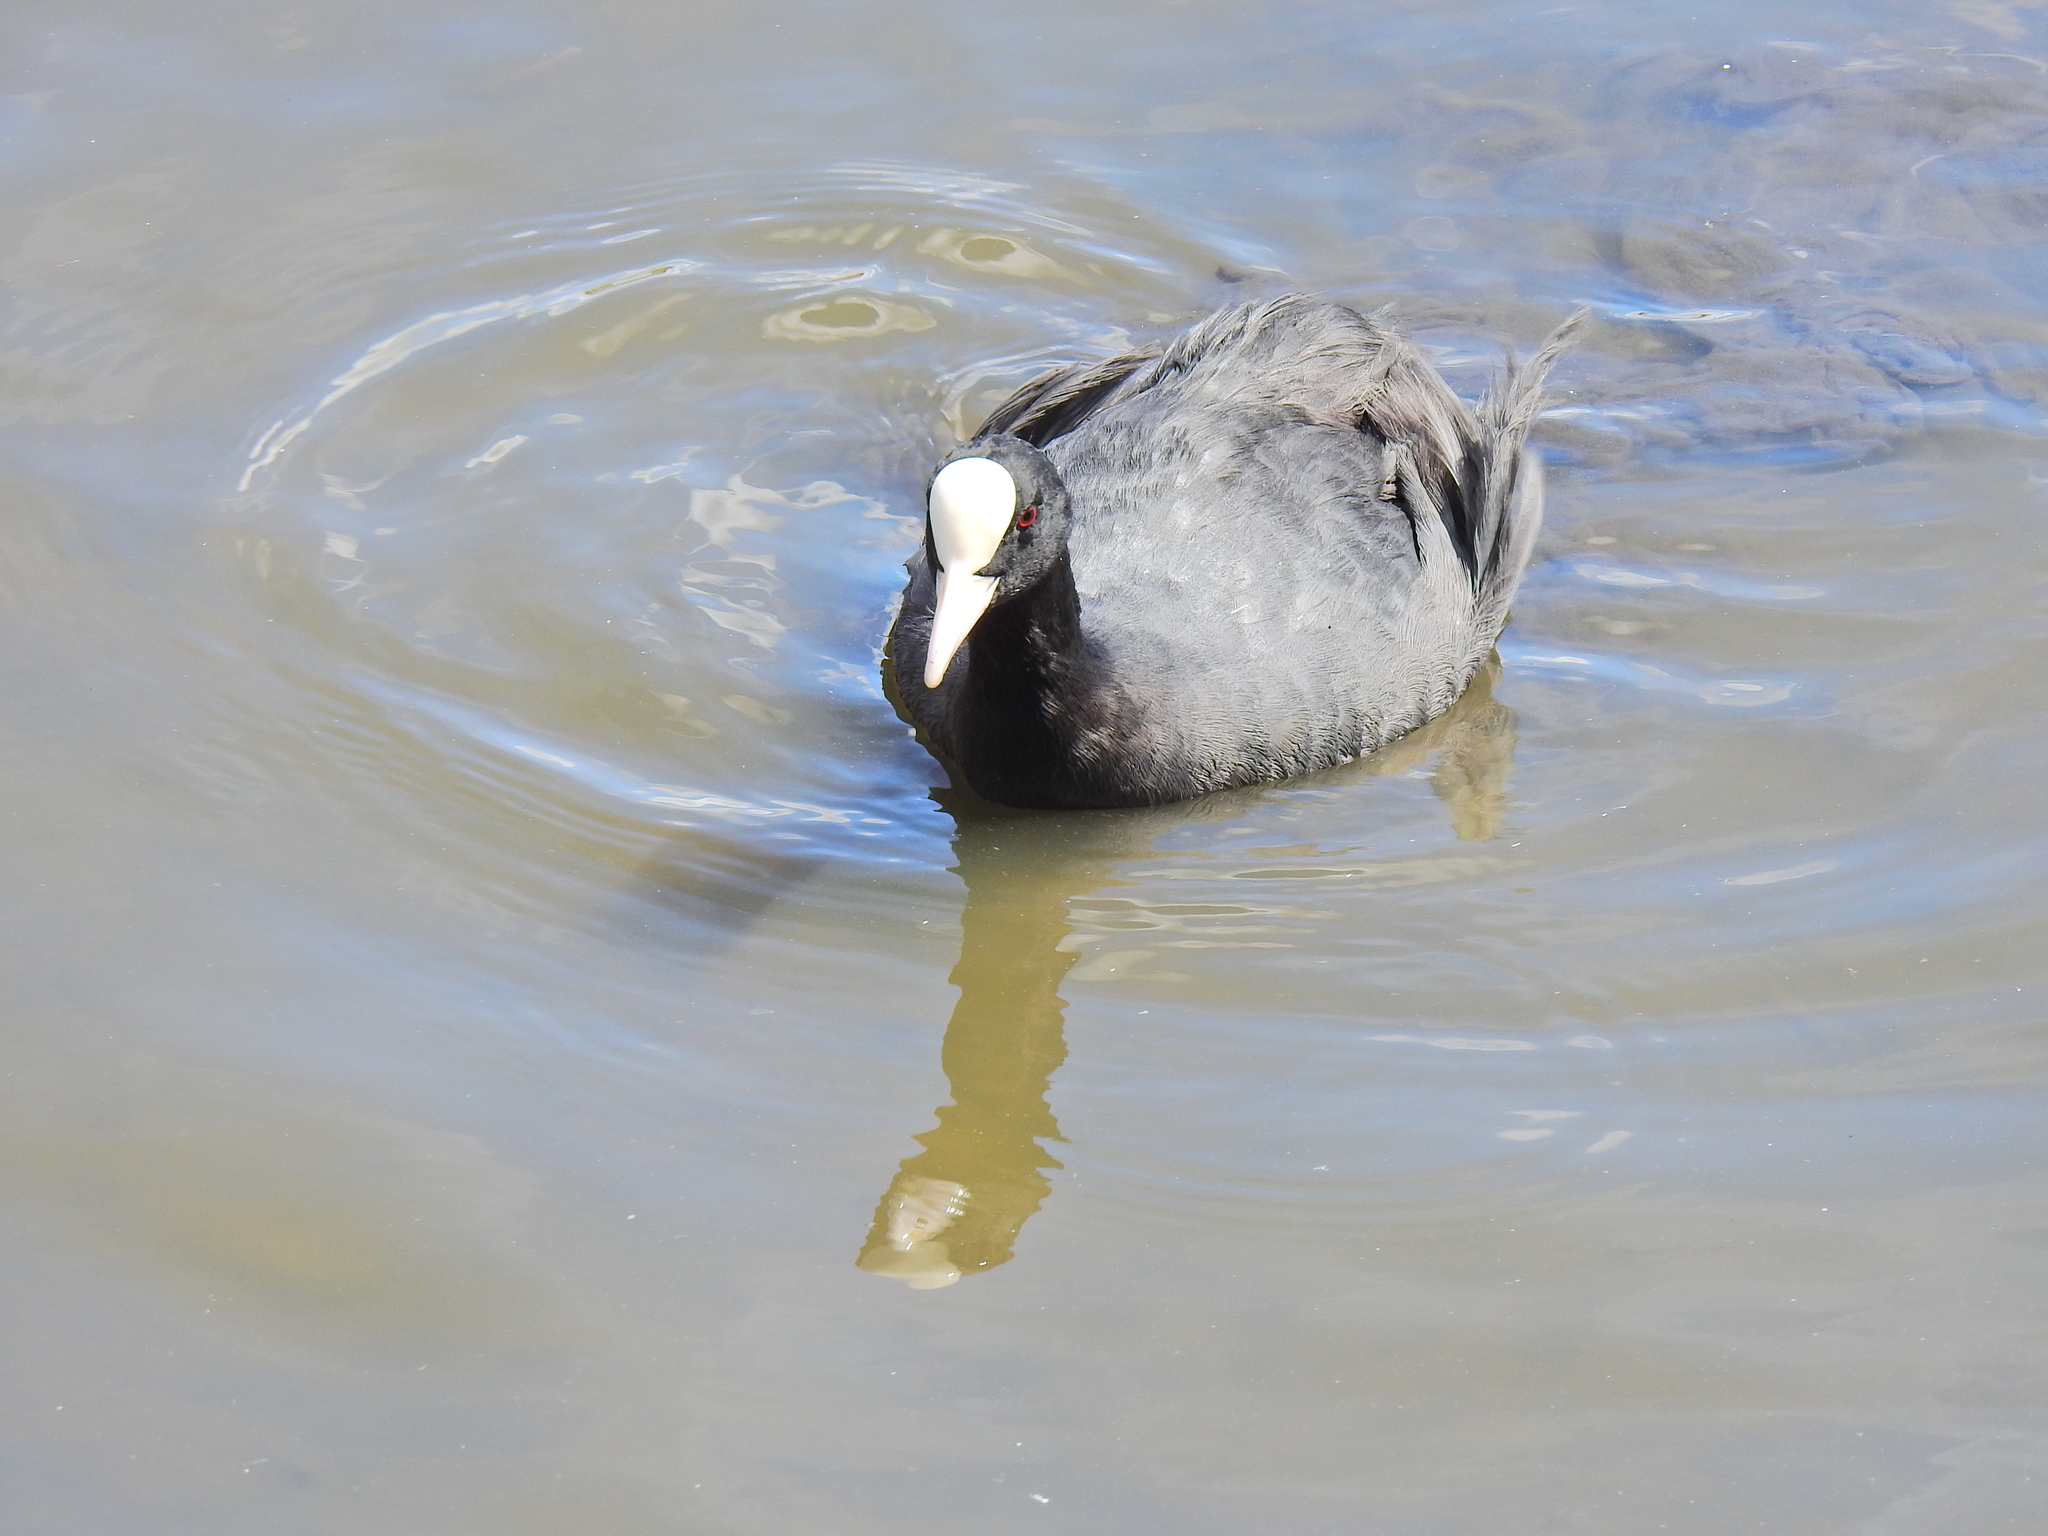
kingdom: Animalia
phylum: Chordata
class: Aves
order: Gruiformes
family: Rallidae
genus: Fulica
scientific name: Fulica atra
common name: Eurasian coot
